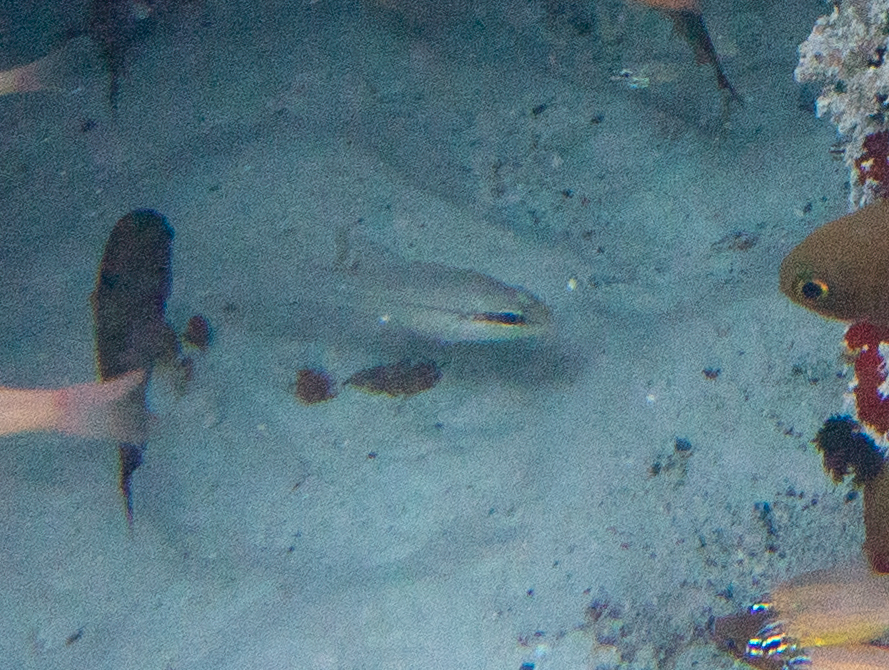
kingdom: Animalia
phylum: Chordata
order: Perciformes
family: Apogonidae
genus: Pristiapogon
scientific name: Pristiapogon abrogramma
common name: Lateralstripe cardinalfish
